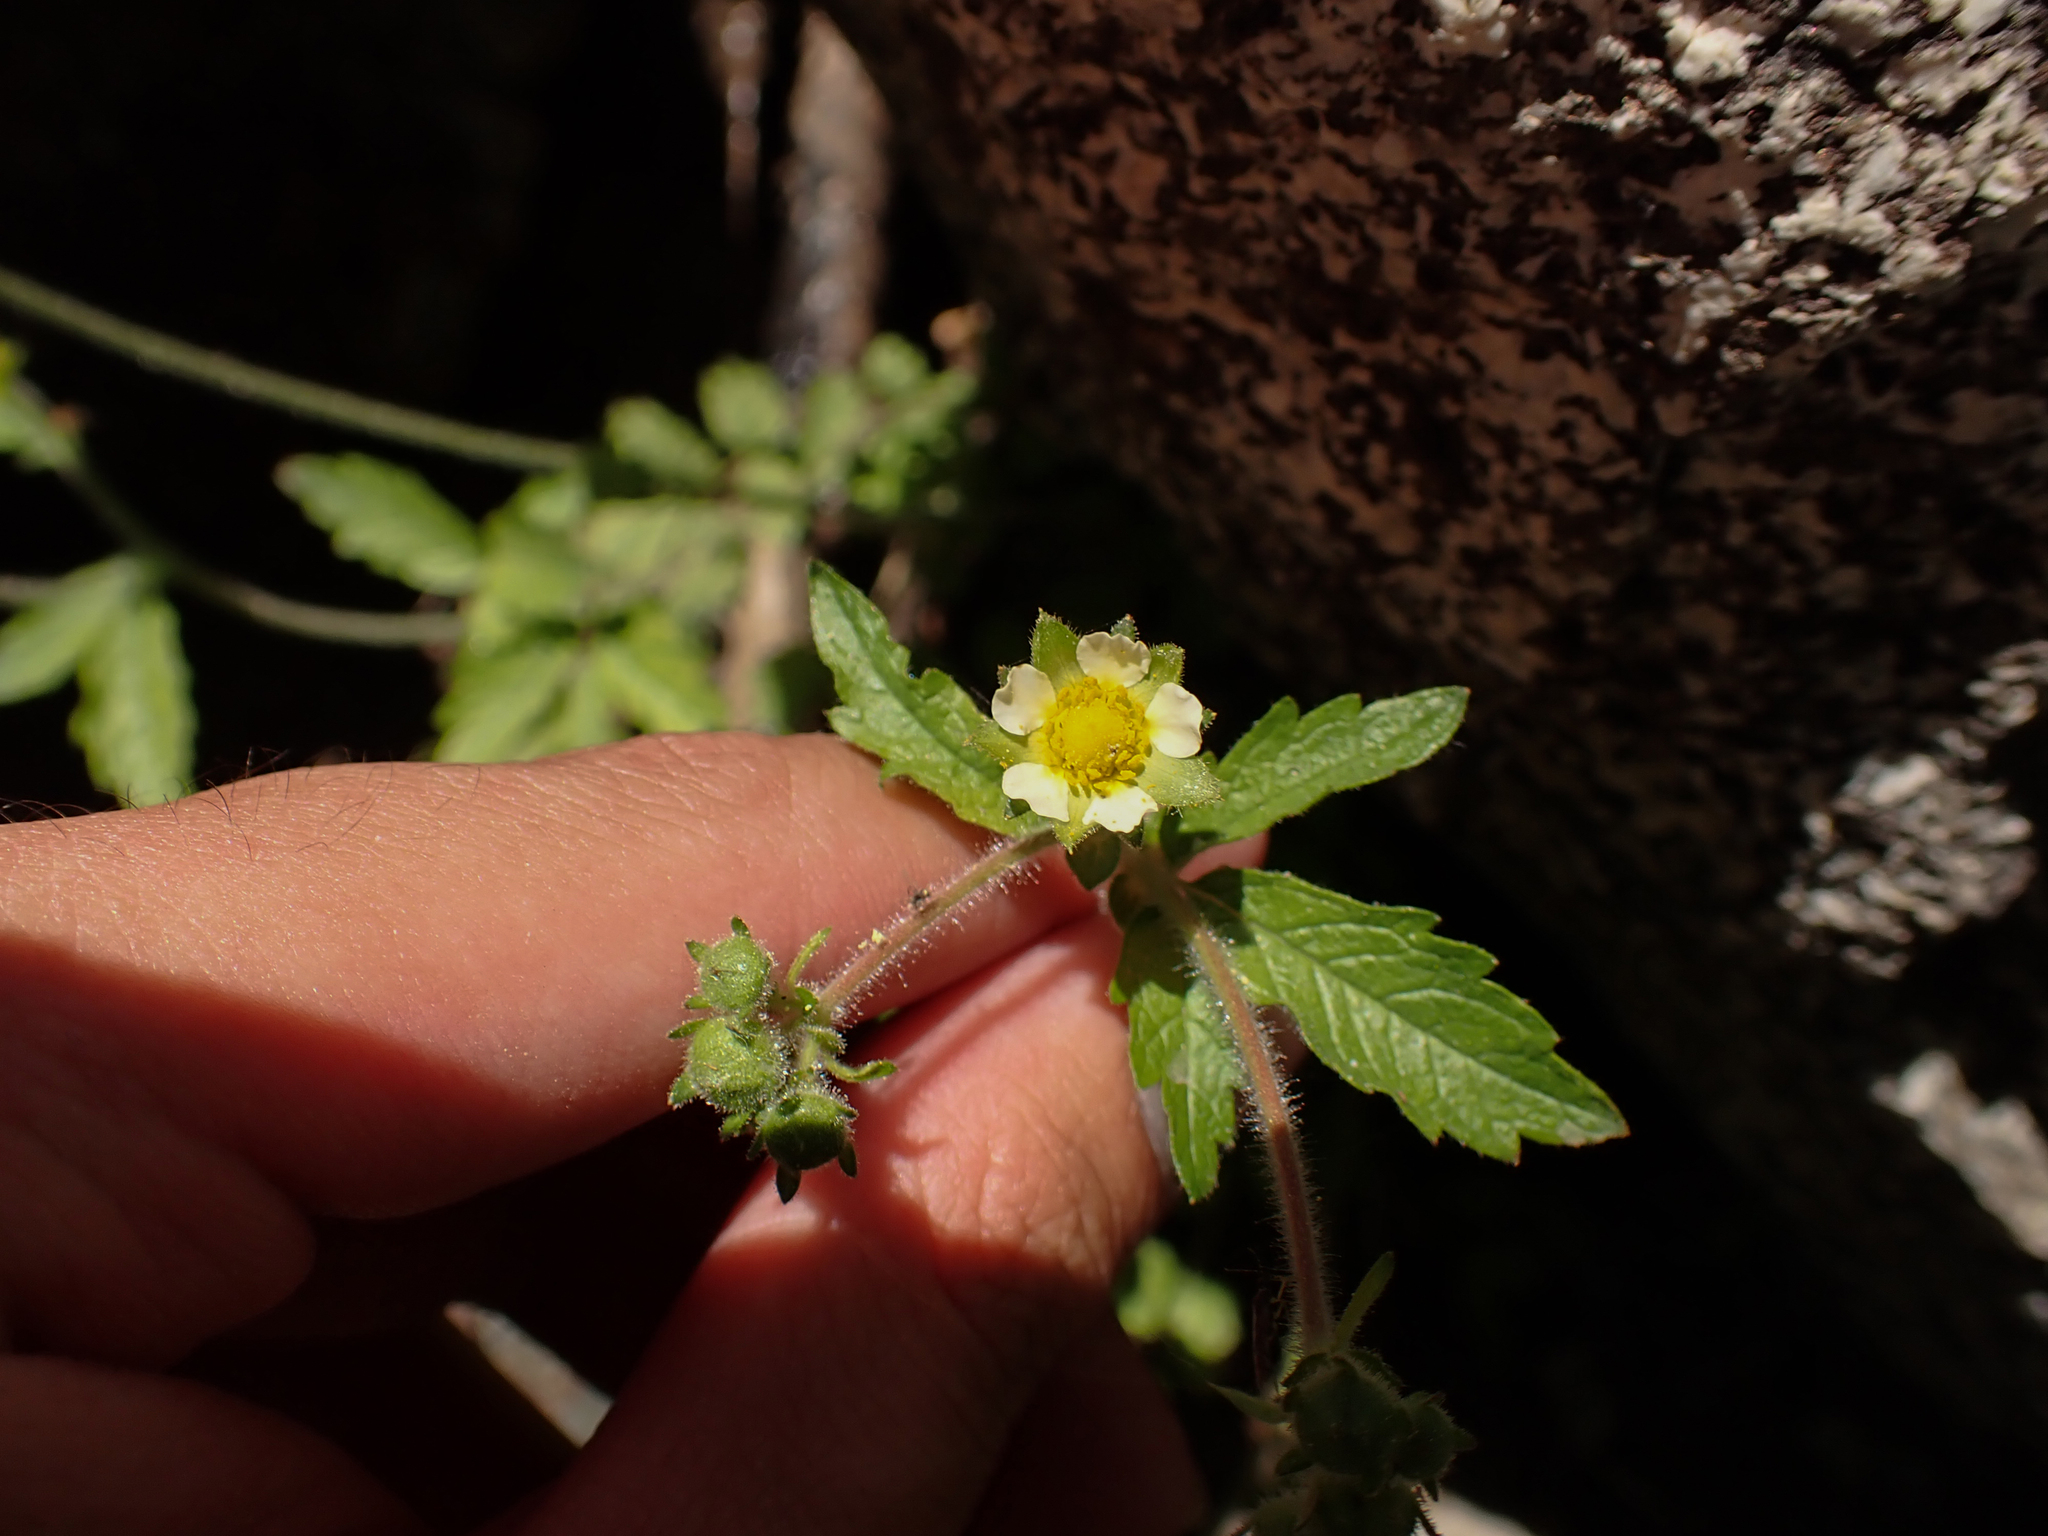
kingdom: Plantae
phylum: Tracheophyta
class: Magnoliopsida
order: Rosales
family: Rosaceae
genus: Drymocallis
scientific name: Drymocallis glandulosa
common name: Sticky cinquefoil
